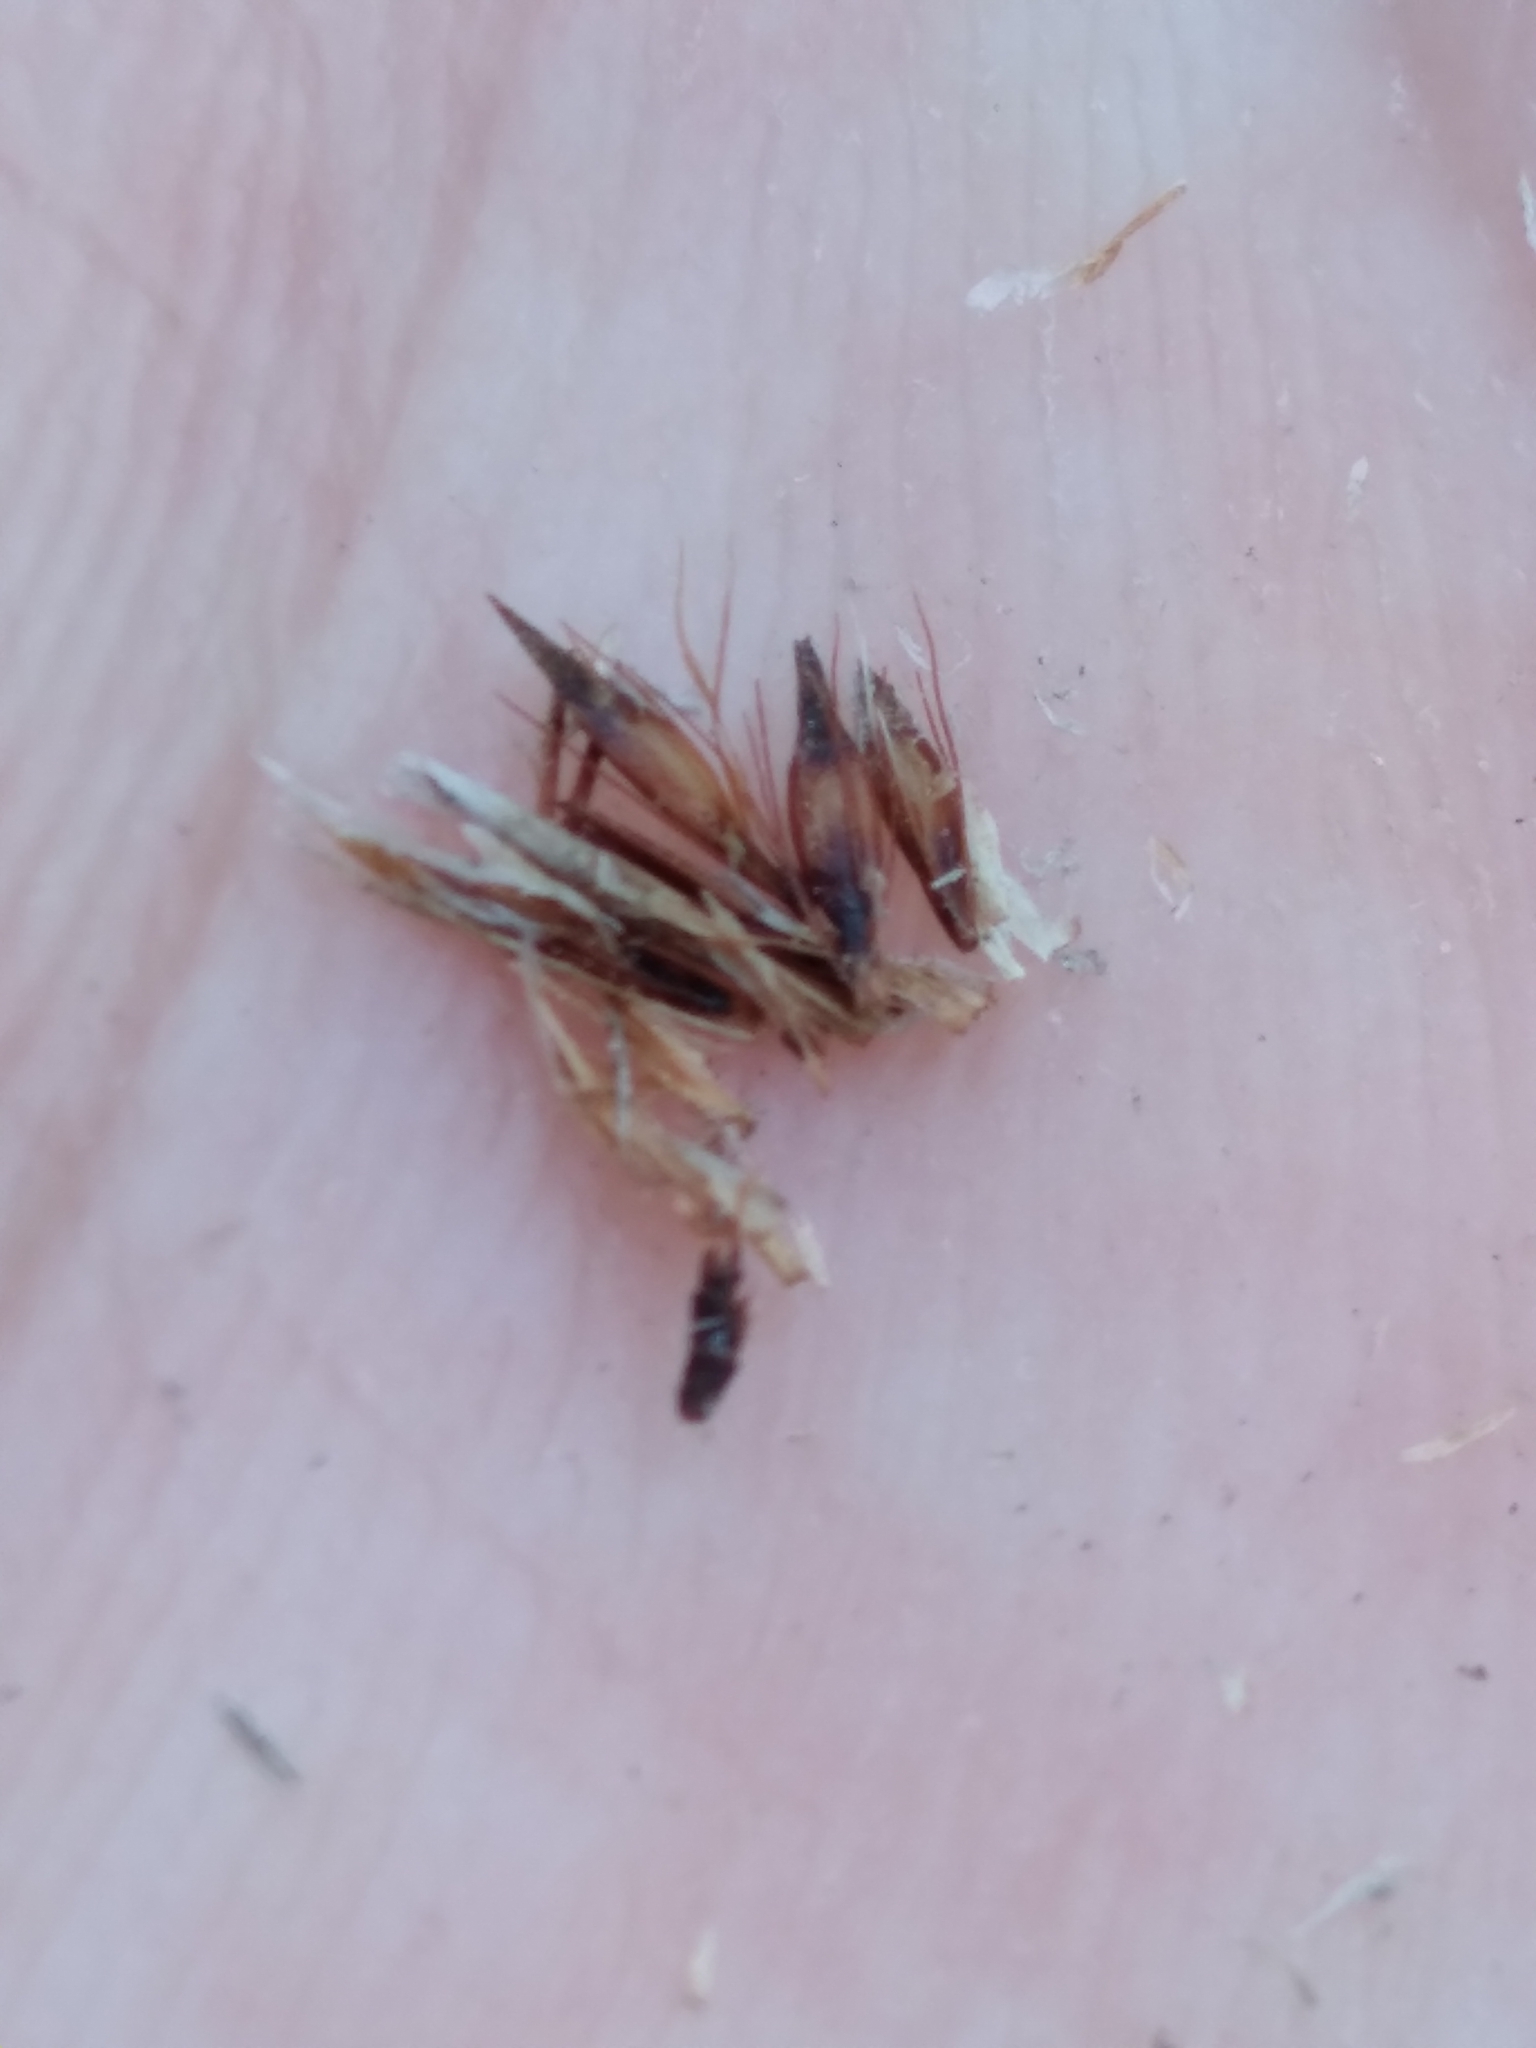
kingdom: Plantae
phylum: Tracheophyta
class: Liliopsida
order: Poales
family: Cyperaceae
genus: Rhynchospora
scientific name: Rhynchospora capillacea
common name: Capillary beakrush
